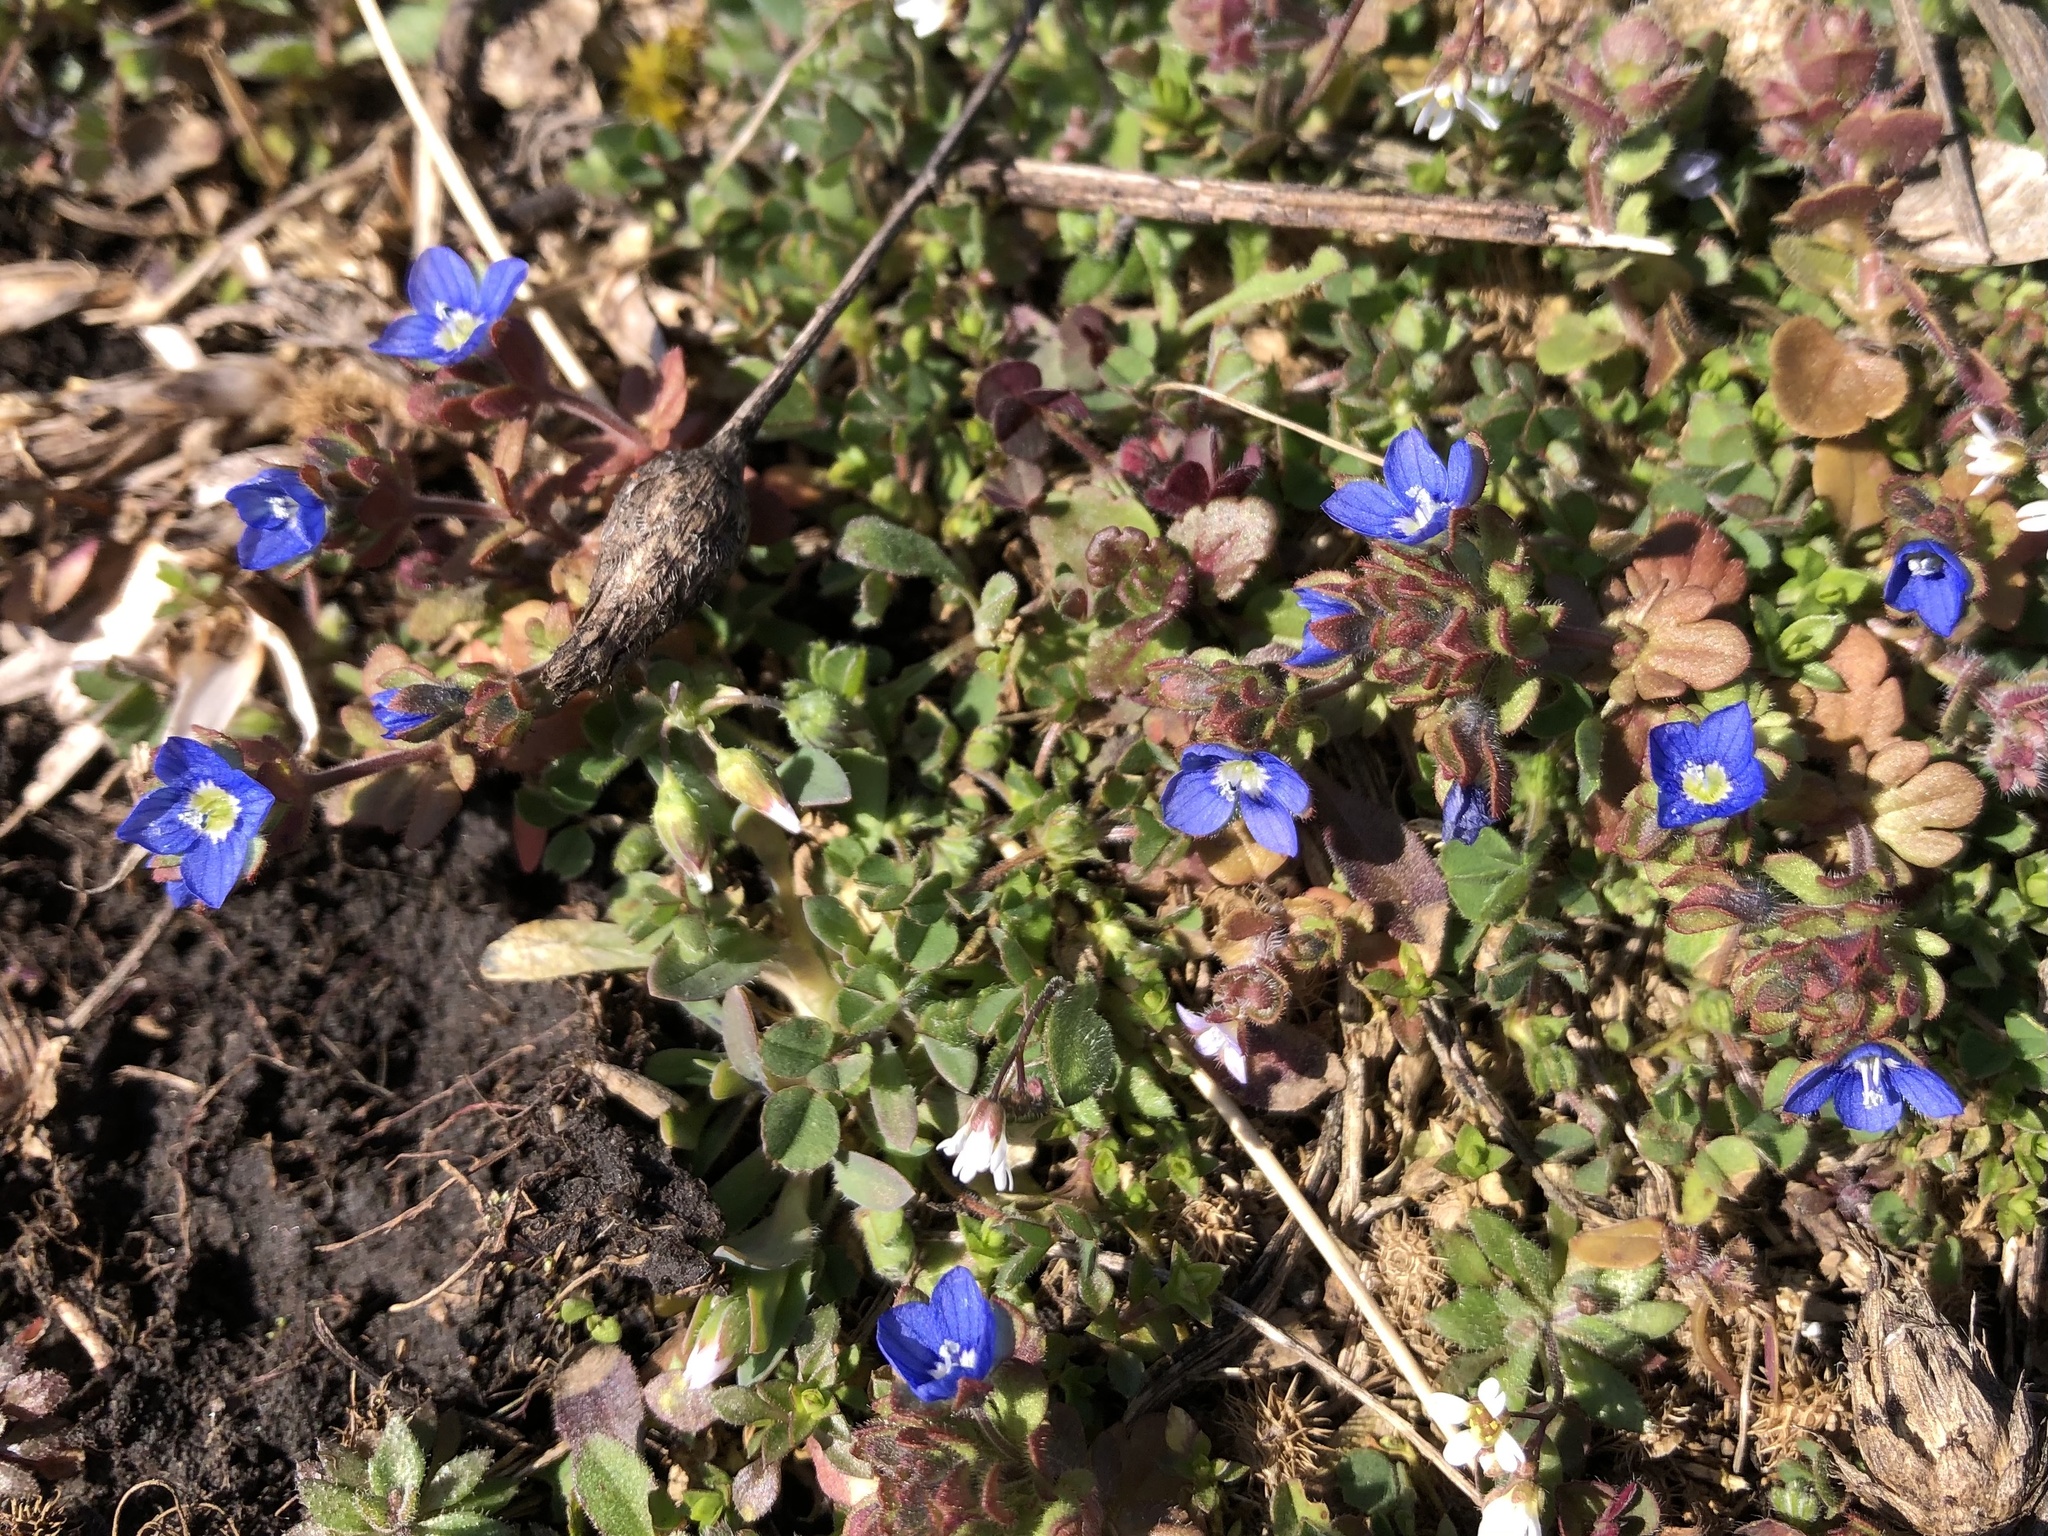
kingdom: Plantae
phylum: Tracheophyta
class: Magnoliopsida
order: Lamiales
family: Plantaginaceae
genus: Veronica
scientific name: Veronica triphyllos
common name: Fingered speedwell
